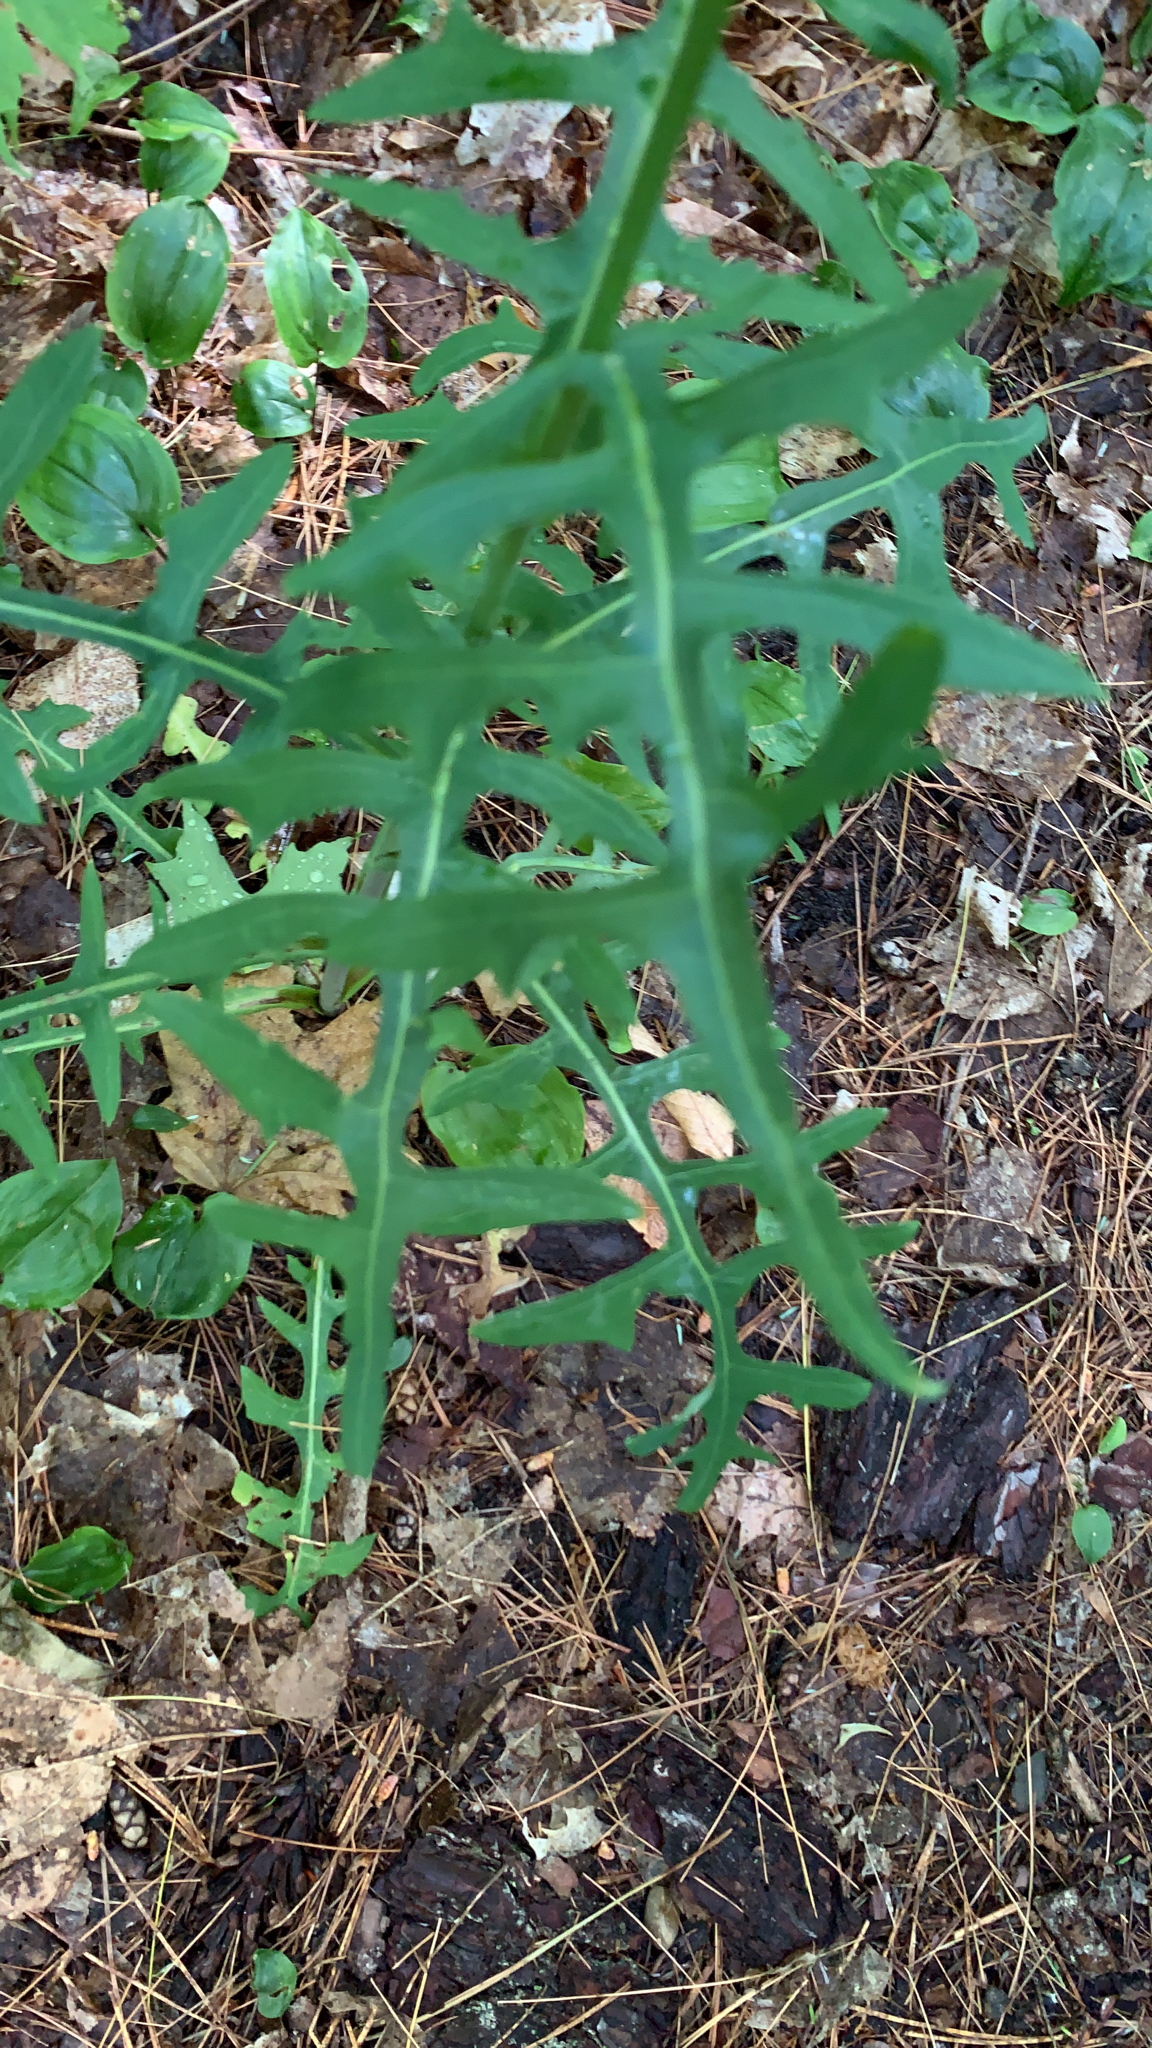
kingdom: Plantae
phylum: Tracheophyta
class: Magnoliopsida
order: Asterales
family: Asteraceae
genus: Lactuca
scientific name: Lactuca canadensis
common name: Canada lettuce
